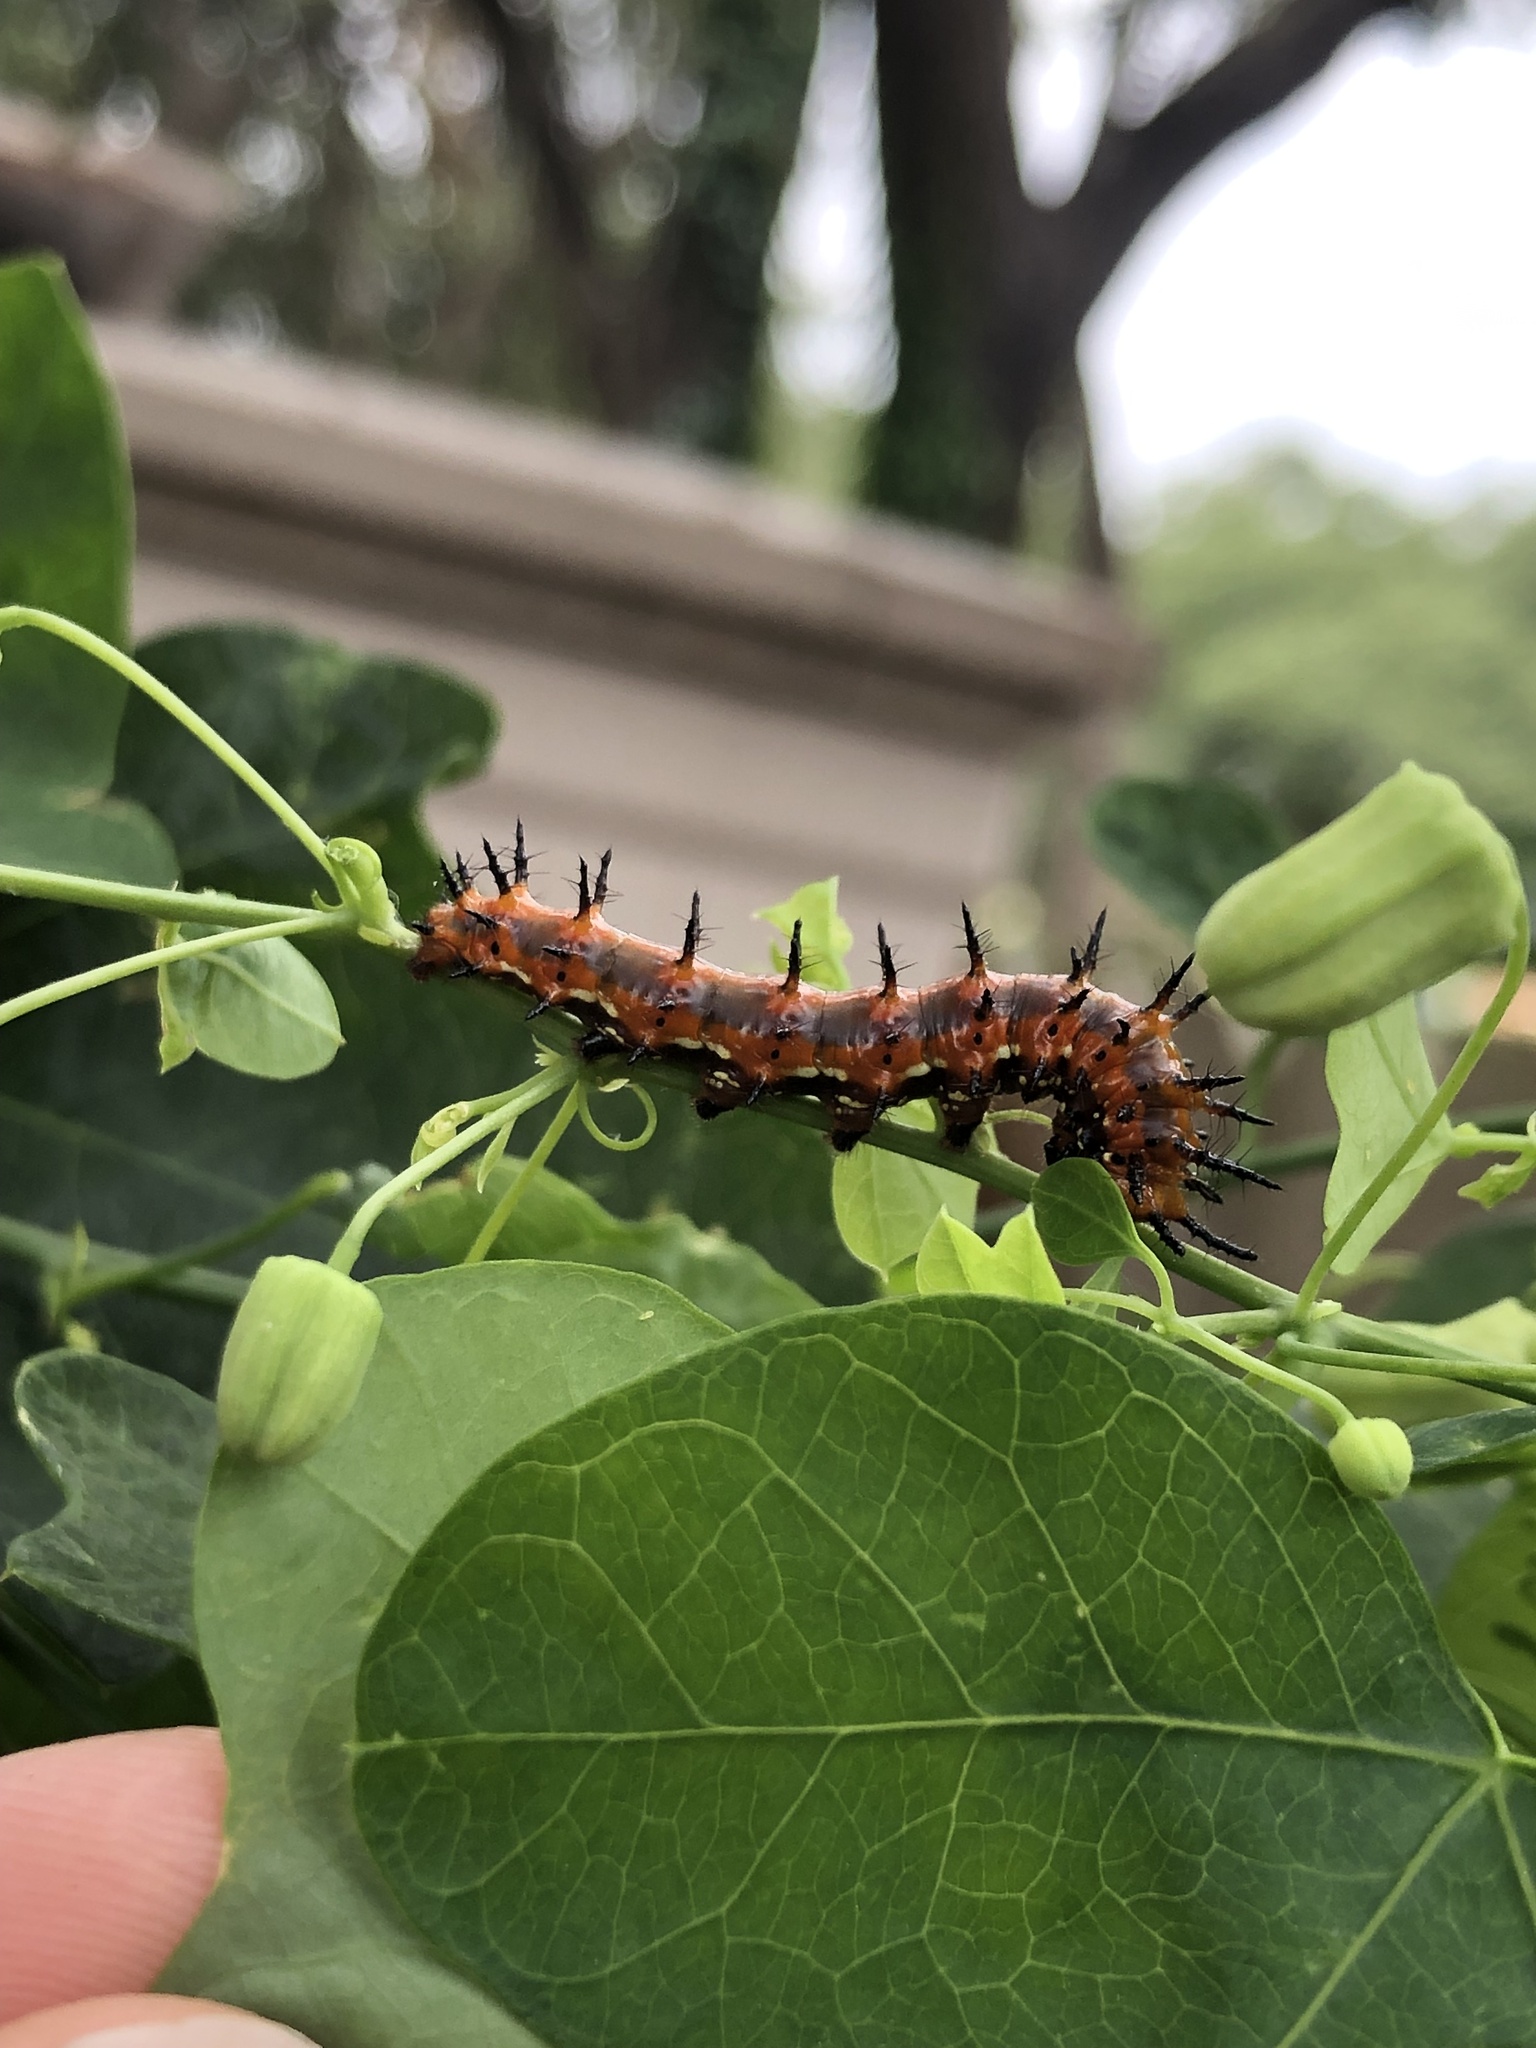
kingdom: Animalia
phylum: Arthropoda
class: Insecta
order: Lepidoptera
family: Nymphalidae
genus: Dione
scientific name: Dione vanillae
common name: Gulf fritillary
